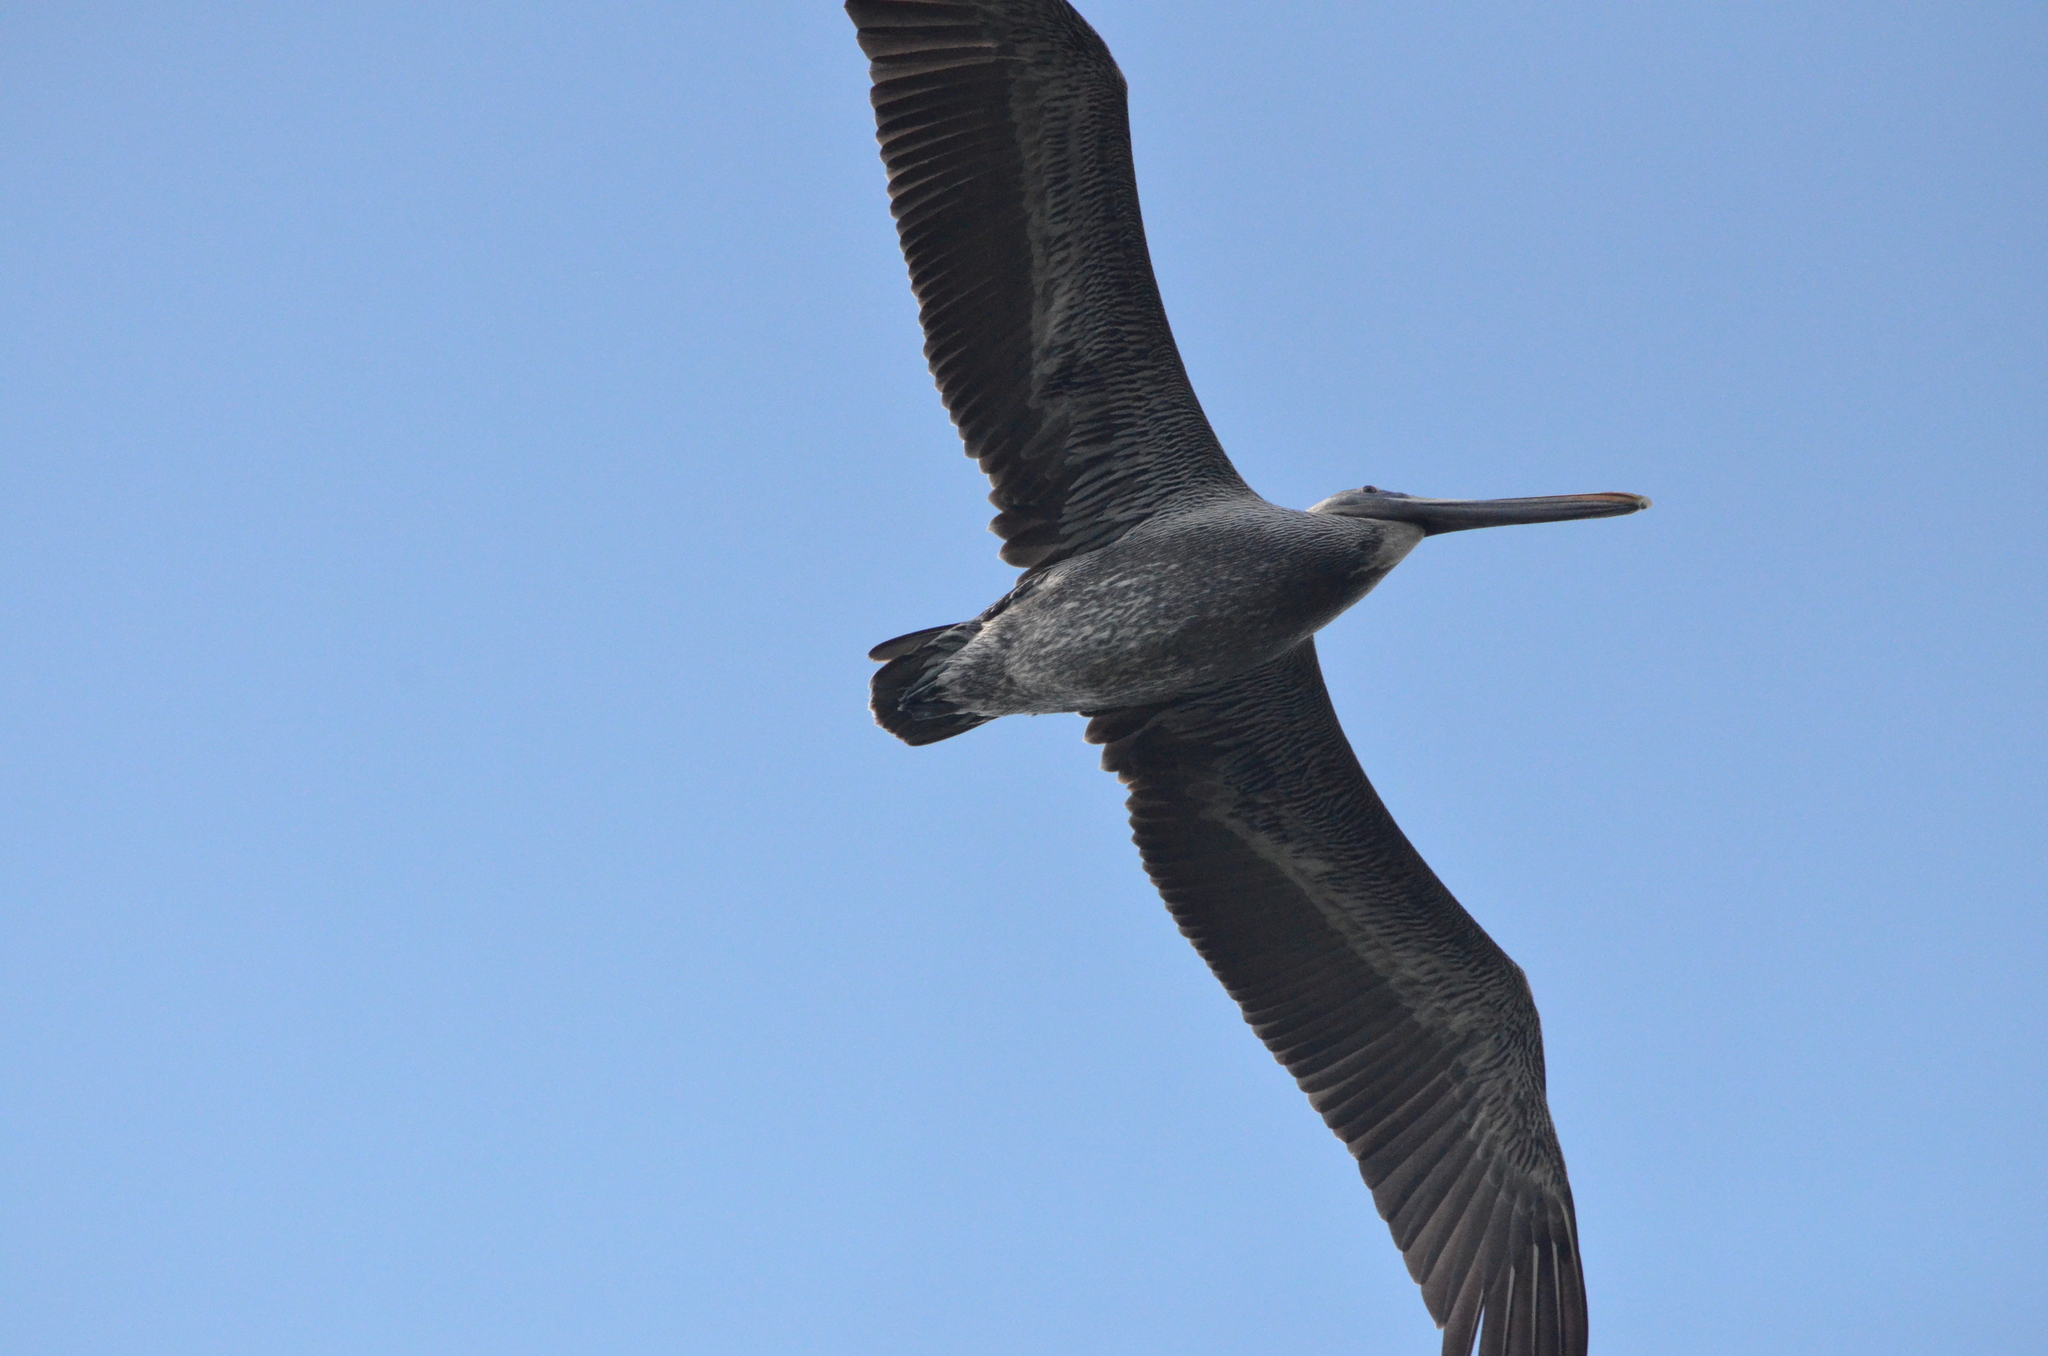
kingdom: Animalia
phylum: Chordata
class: Aves
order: Pelecaniformes
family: Pelecanidae
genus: Pelecanus
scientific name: Pelecanus occidentalis
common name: Brown pelican
